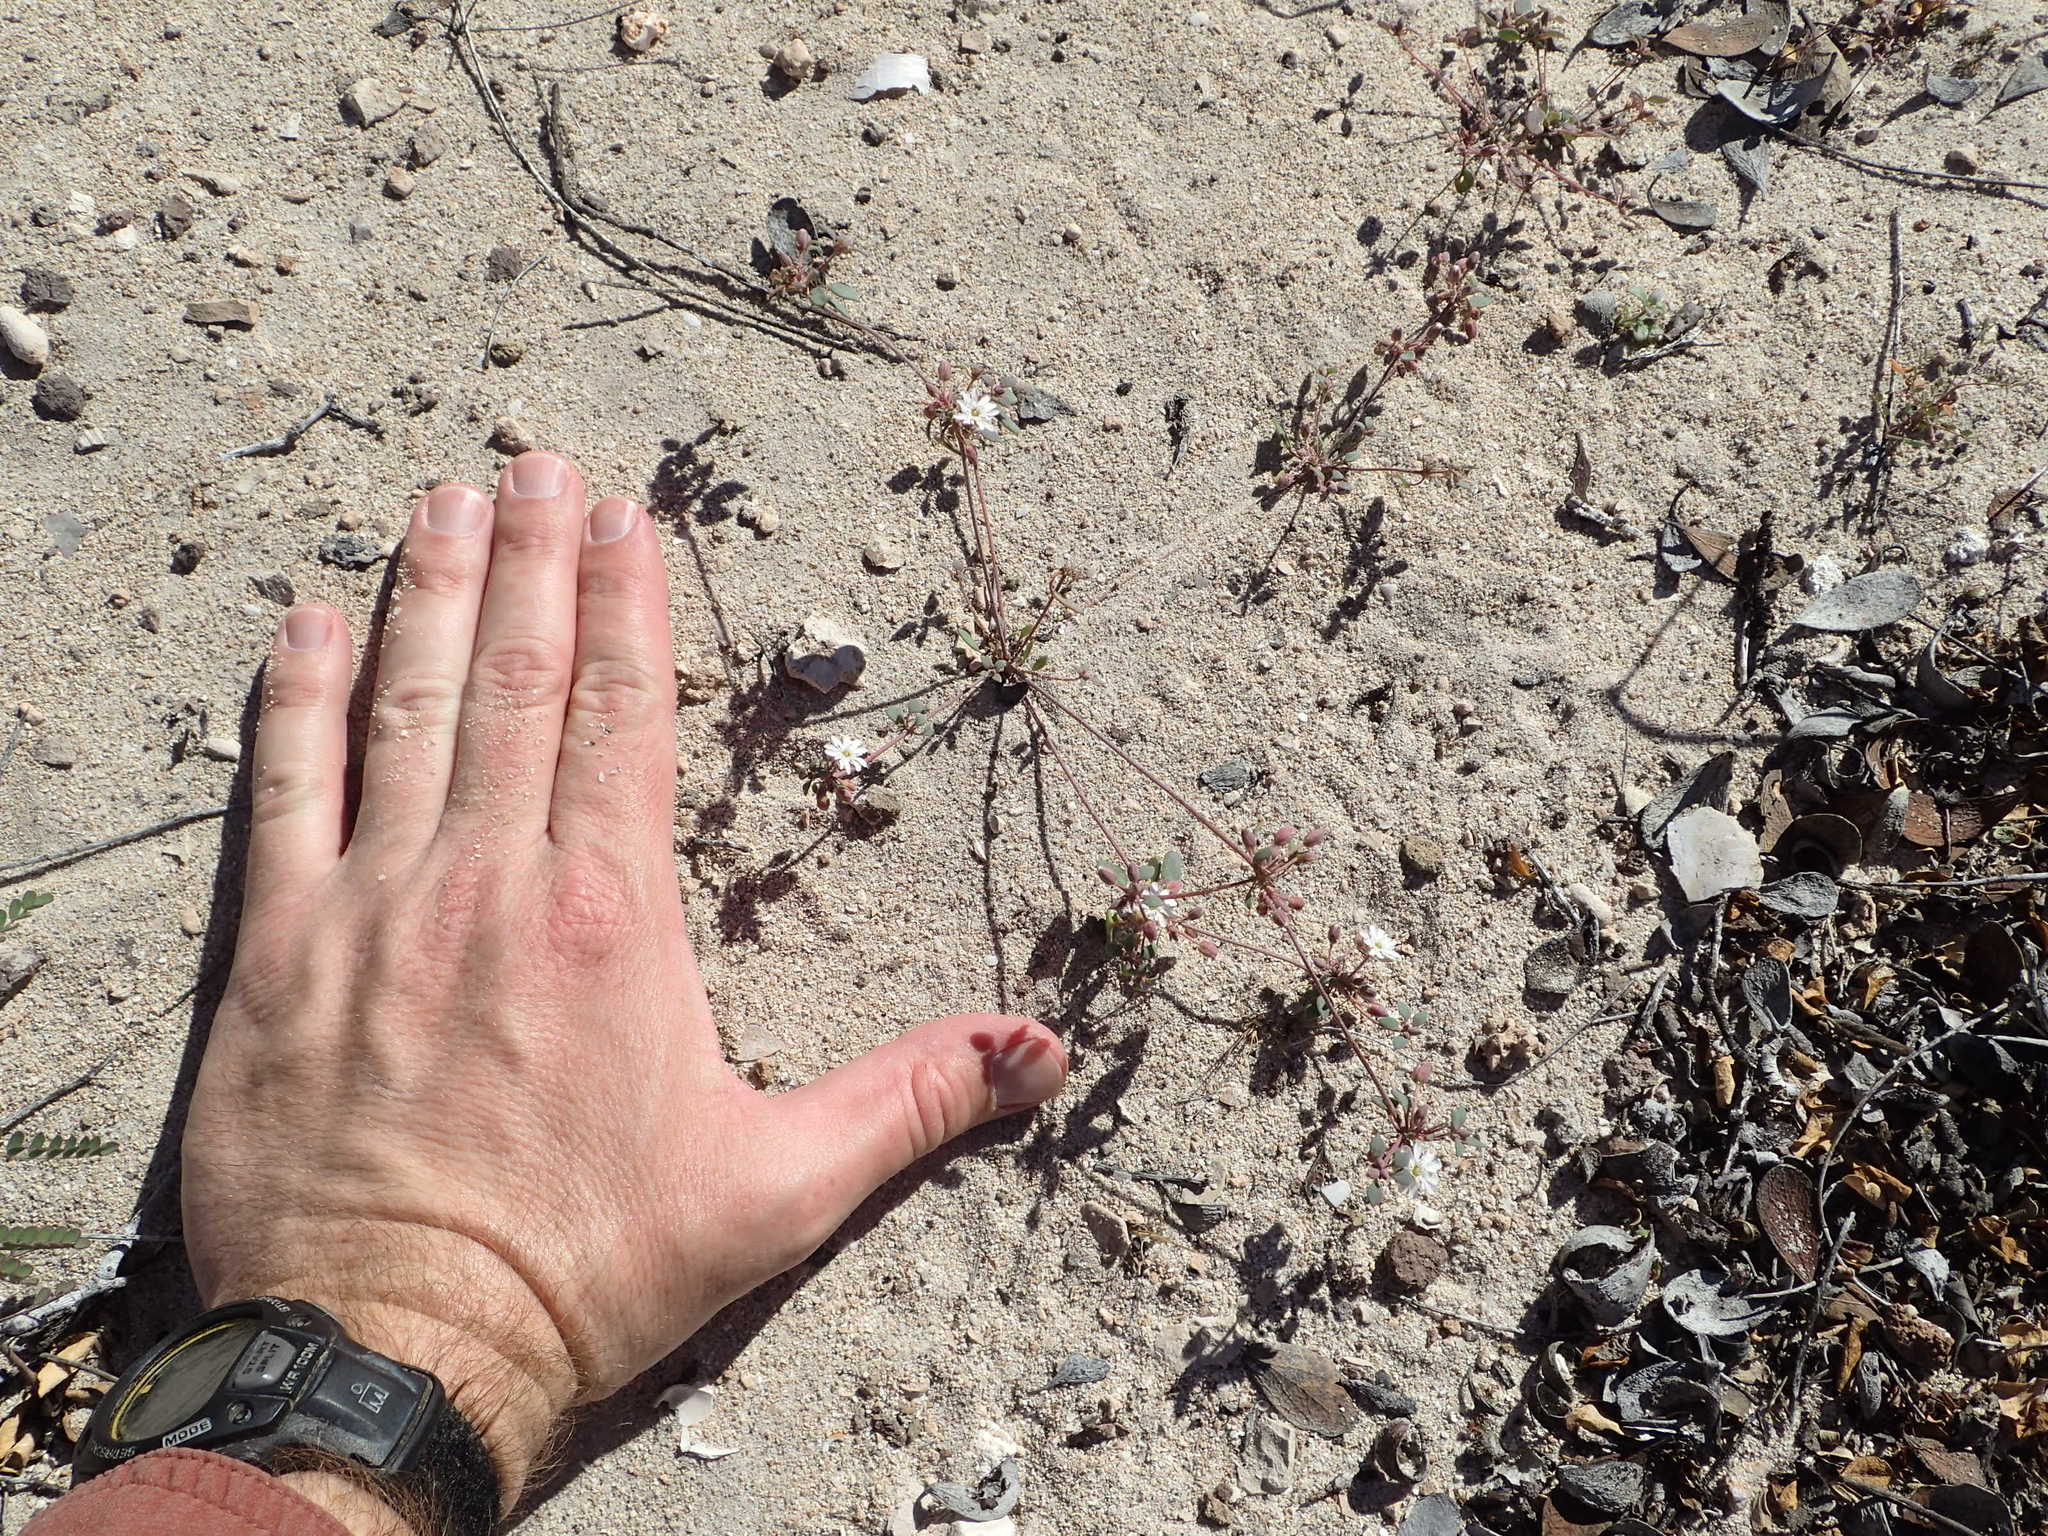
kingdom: Plantae
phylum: Tracheophyta
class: Magnoliopsida
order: Caryophyllales
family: Caryophyllaceae
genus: Drymaria
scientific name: Drymaria holosteoides
